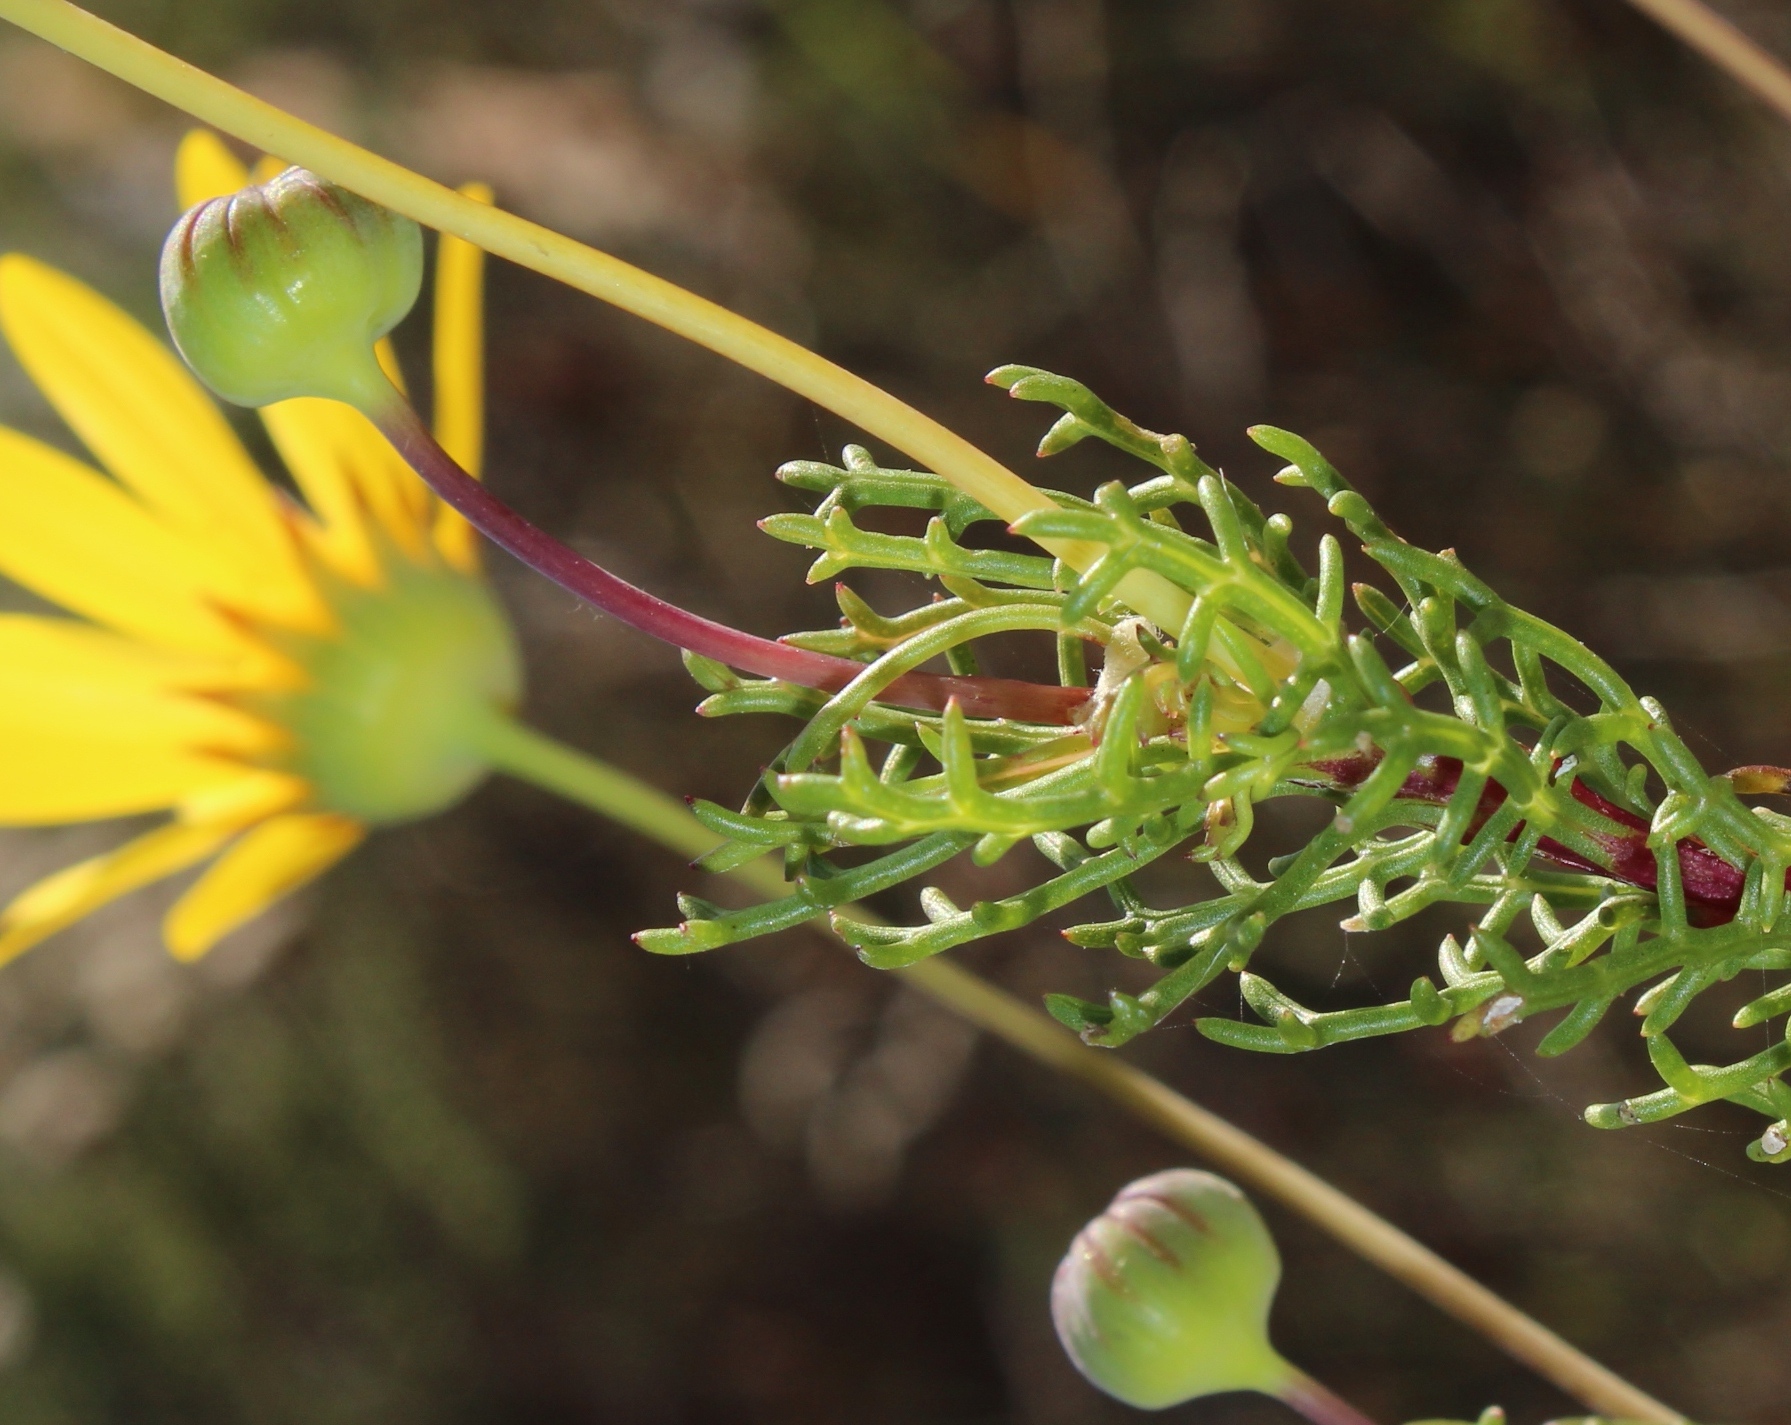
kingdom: Plantae
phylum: Tracheophyta
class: Magnoliopsida
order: Asterales
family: Asteraceae
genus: Euryops
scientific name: Euryops abrotanifolius
